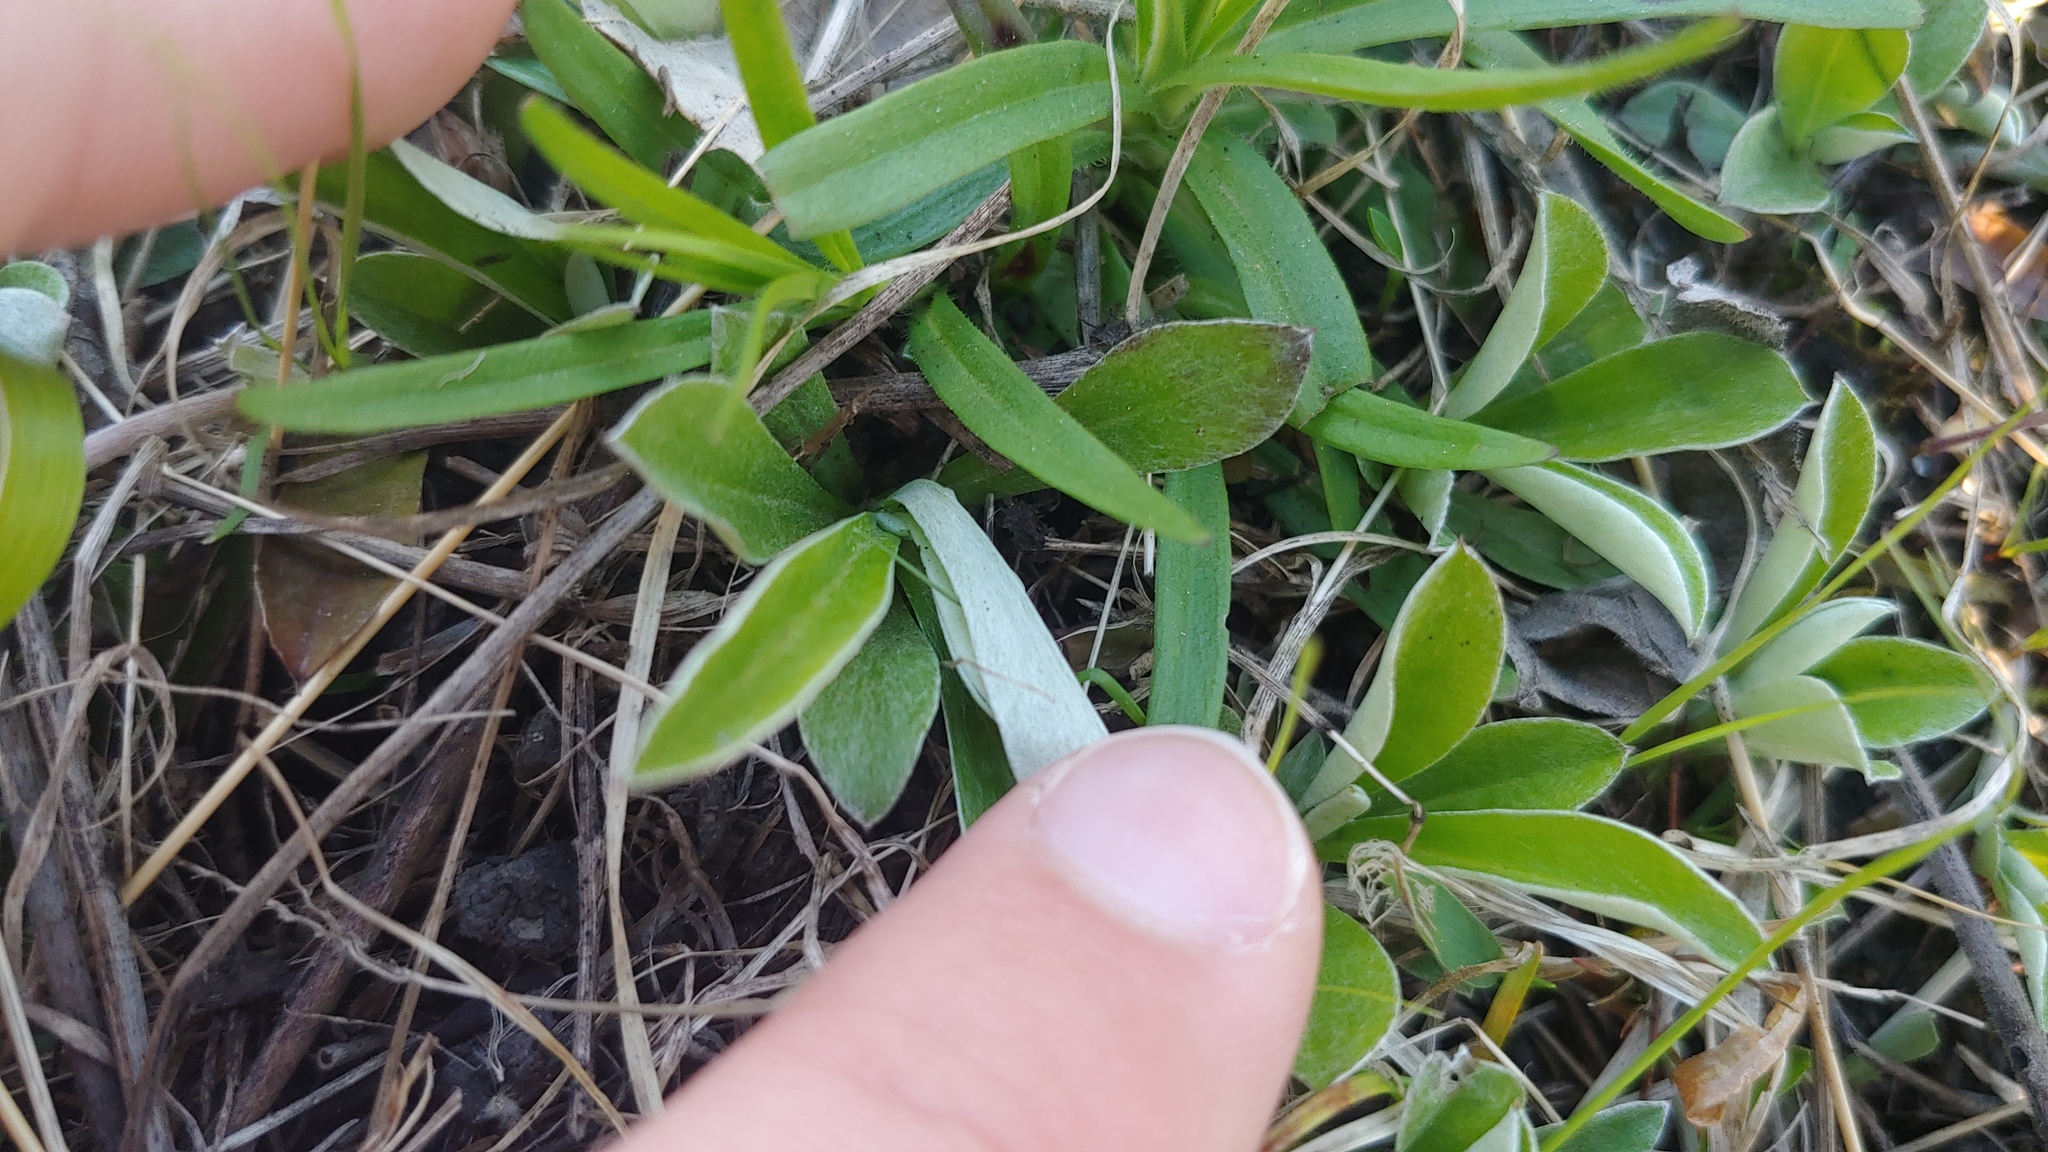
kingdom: Plantae
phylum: Tracheophyta
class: Magnoliopsida
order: Asterales
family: Asteraceae
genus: Antennaria
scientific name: Antennaria howellii
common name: Howell's pussytoes
